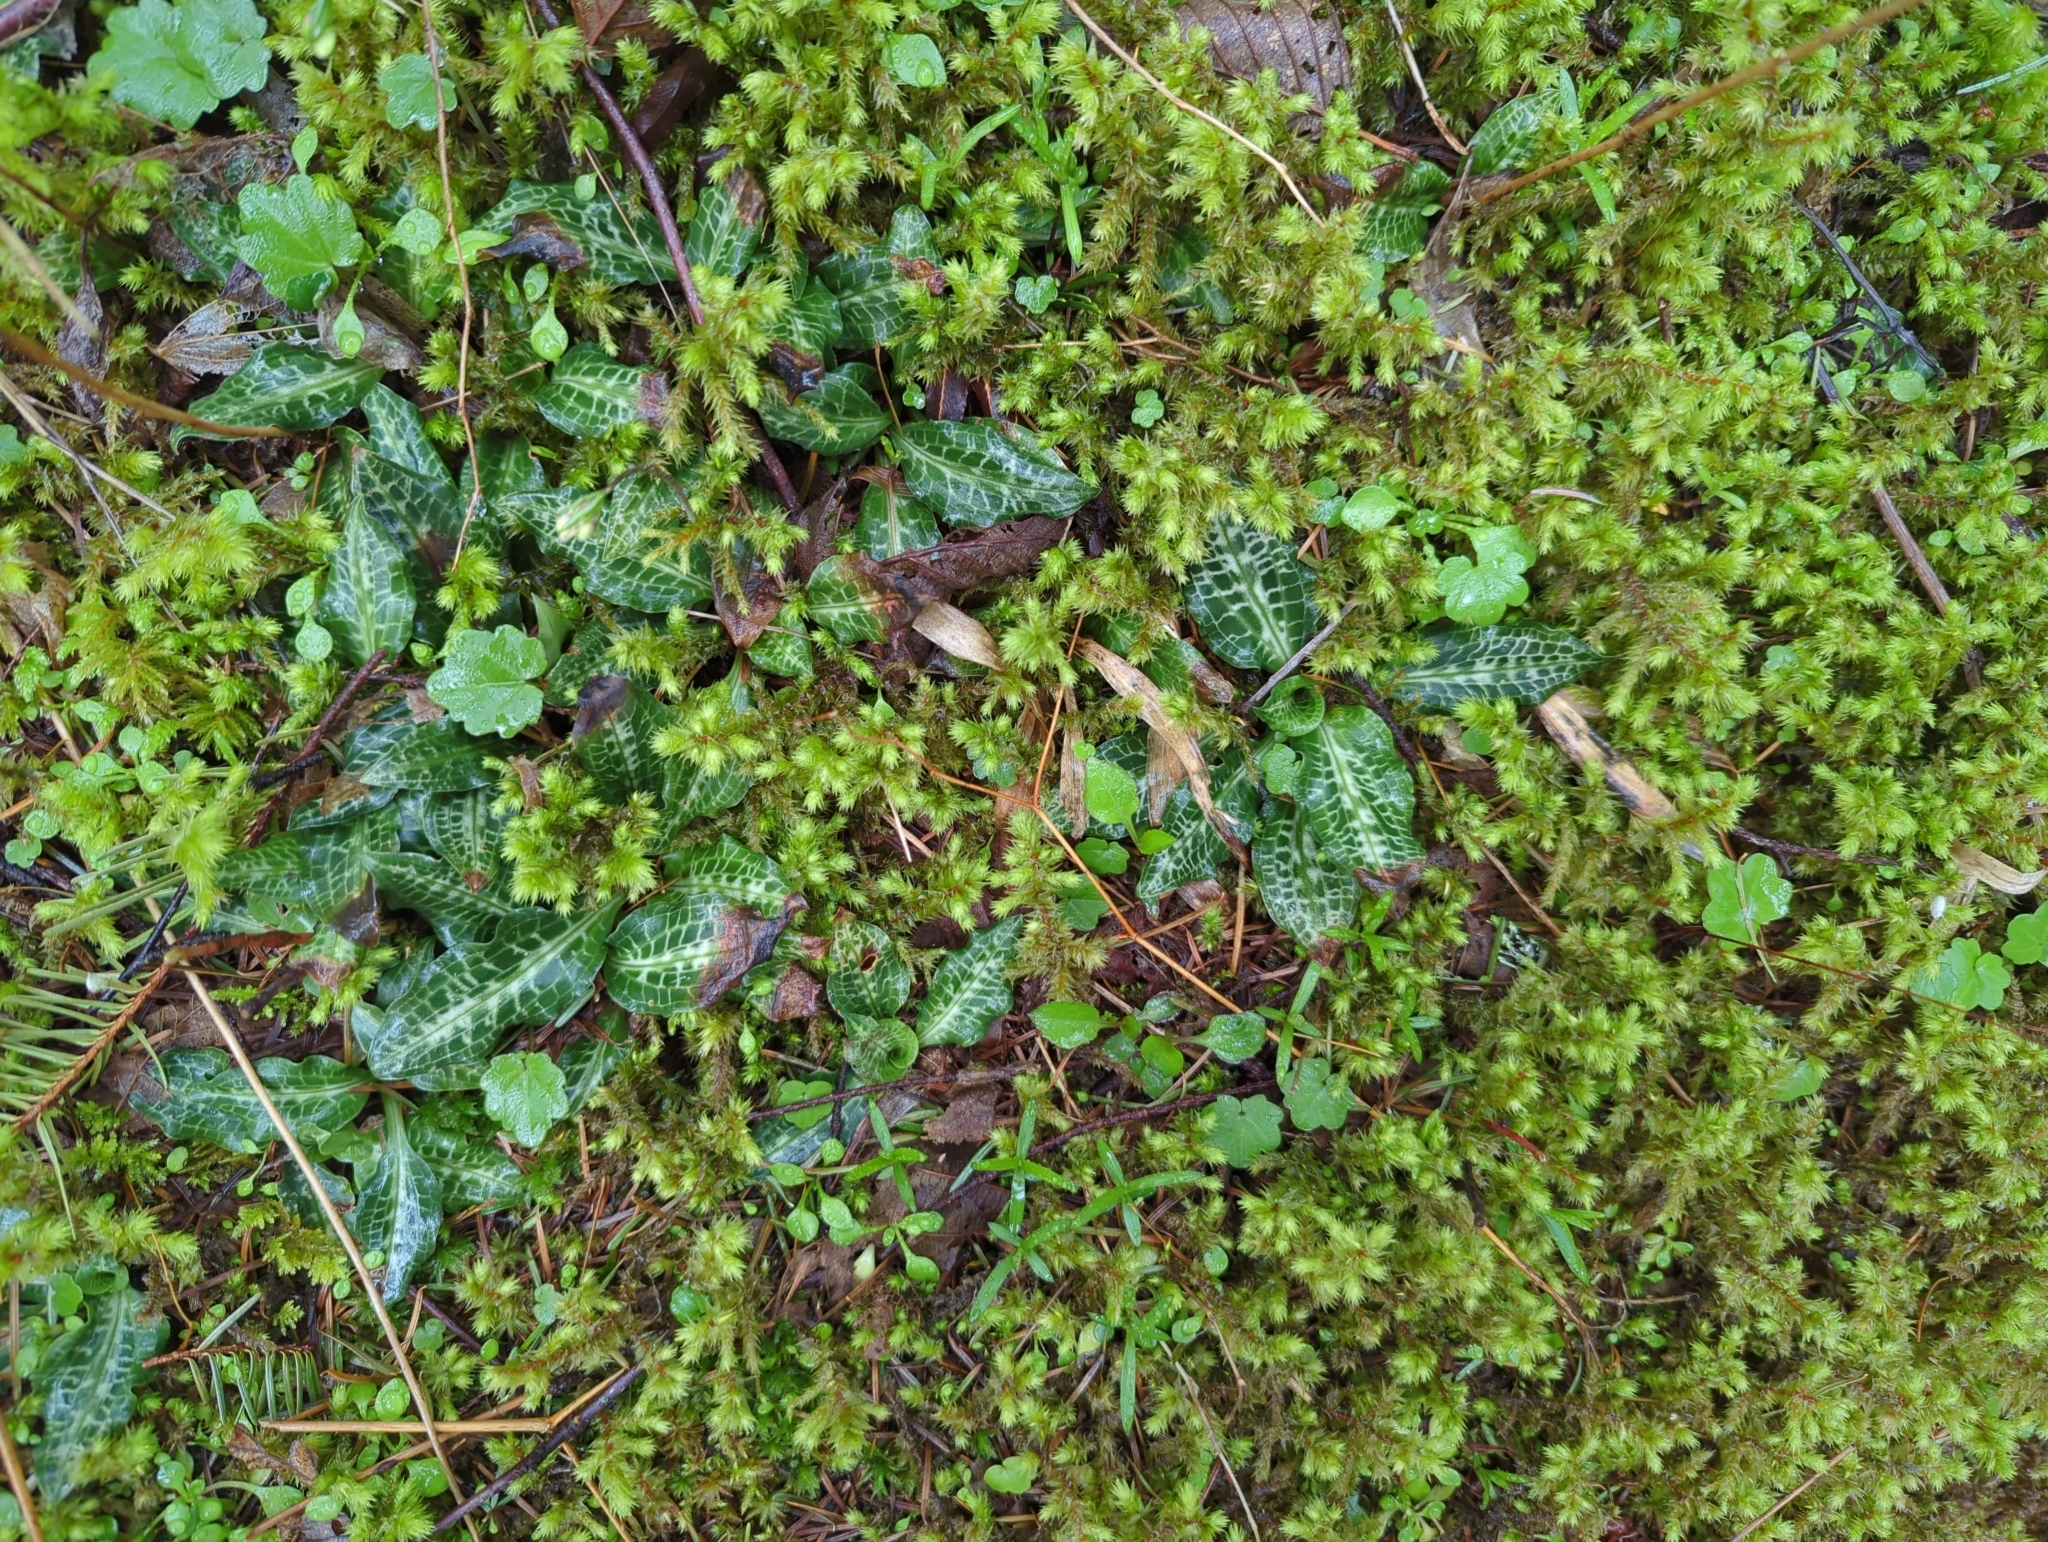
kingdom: Plantae
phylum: Tracheophyta
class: Liliopsida
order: Asparagales
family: Orchidaceae
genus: Goodyera
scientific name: Goodyera oblongifolia
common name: Giant rattlesnake-plantain
